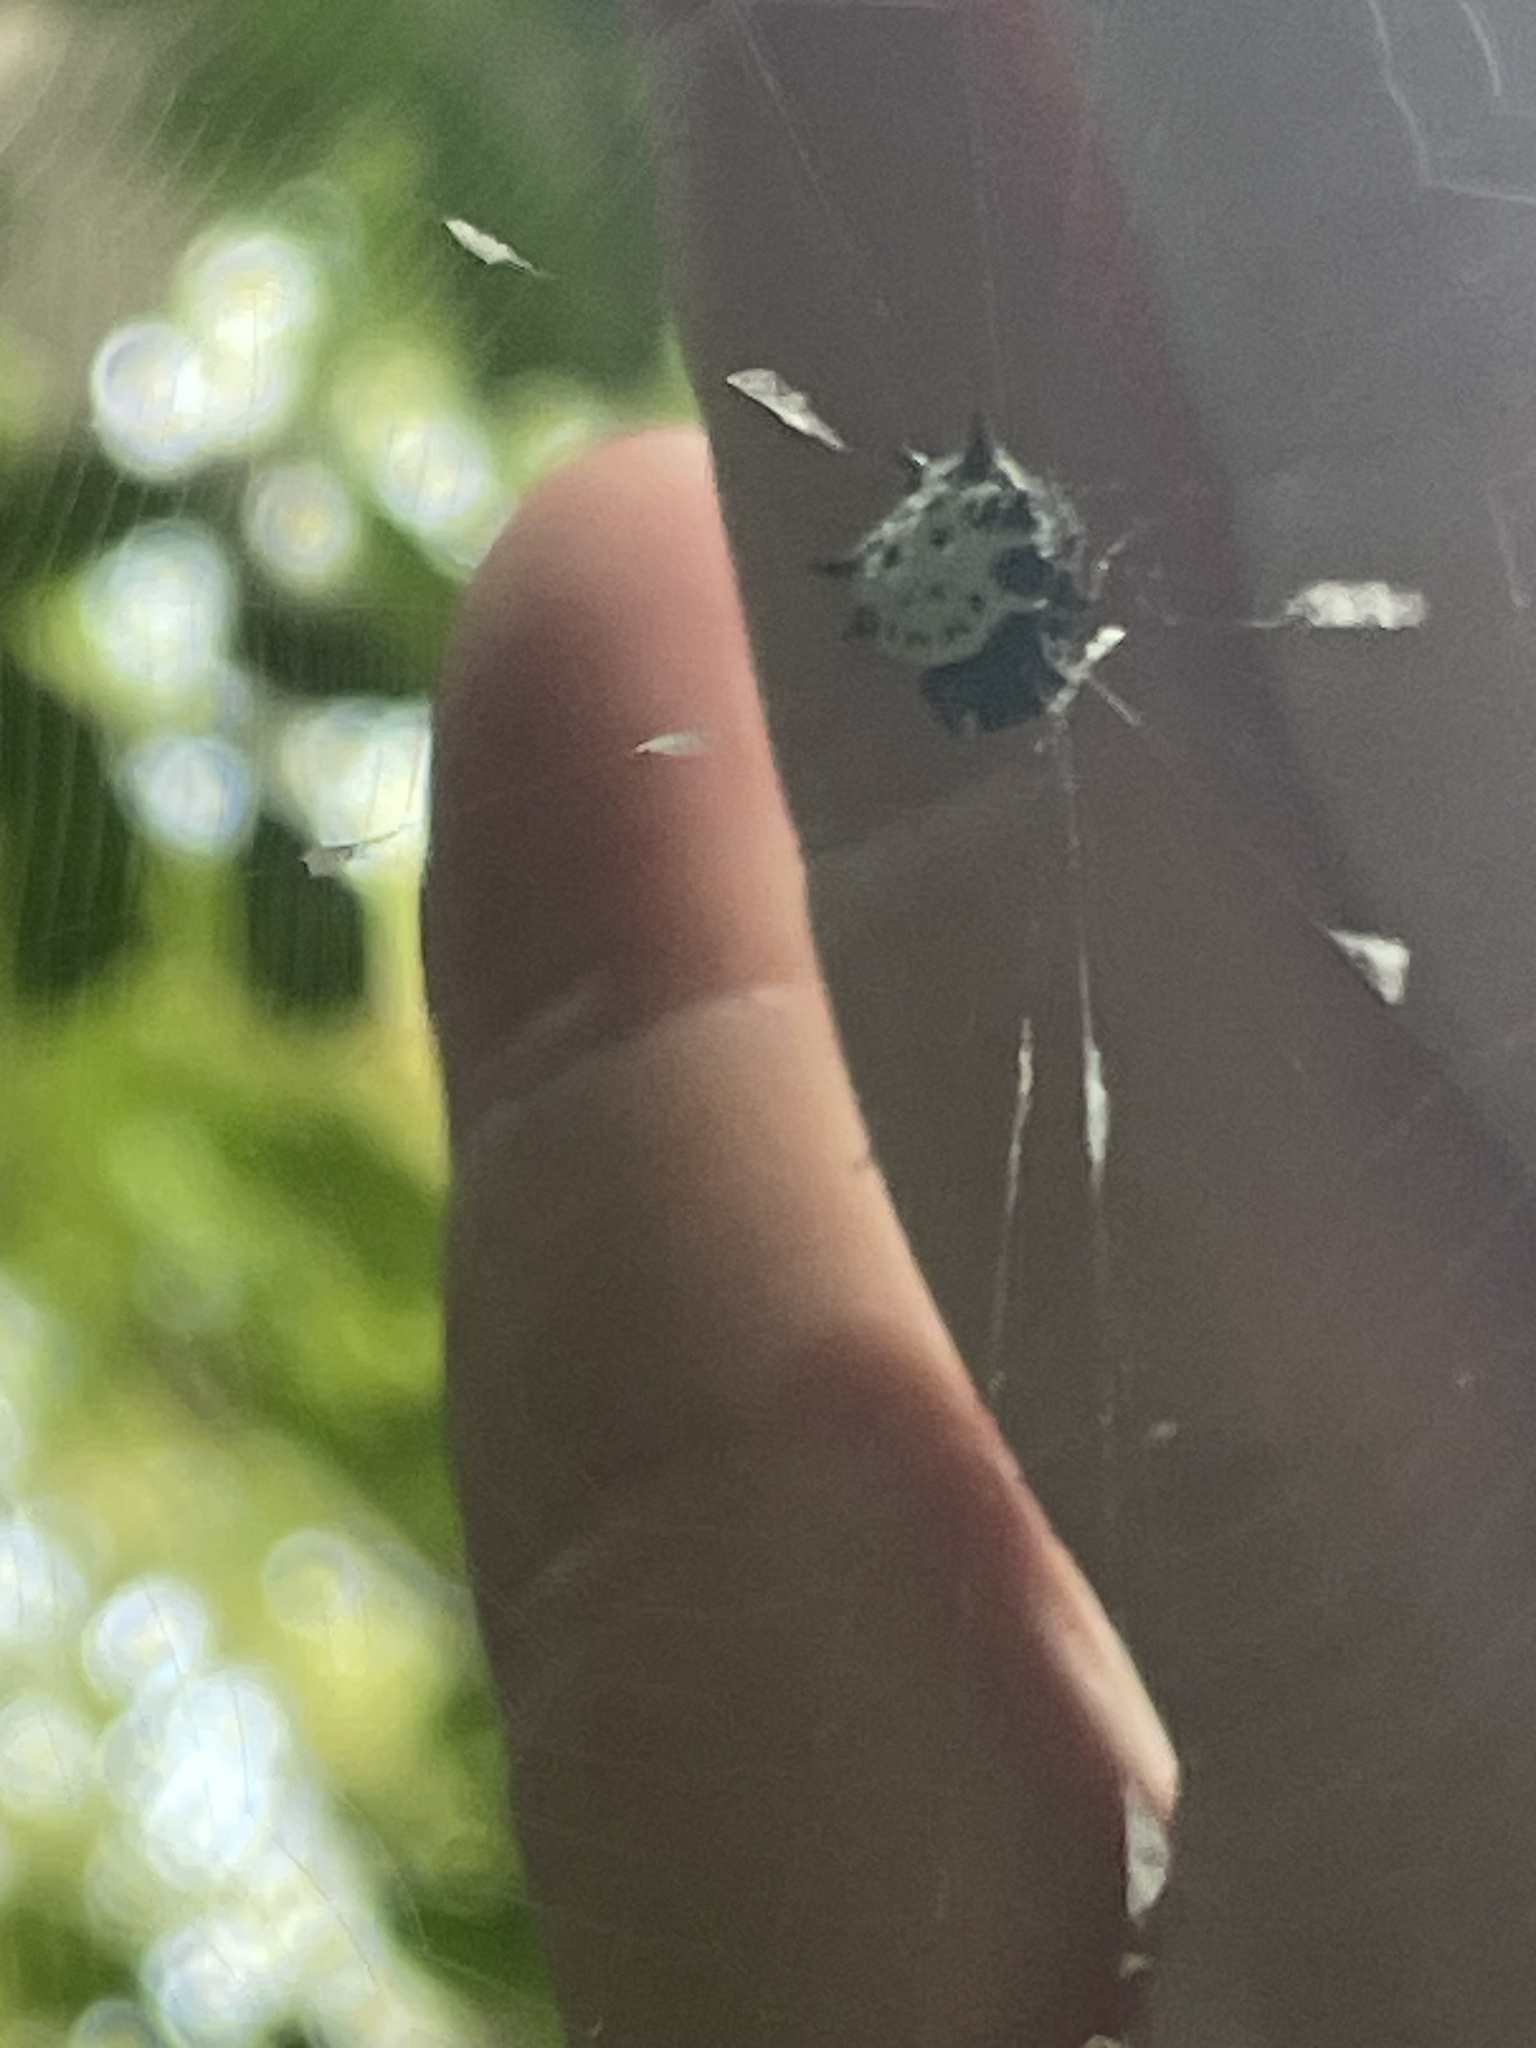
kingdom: Animalia
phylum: Arthropoda
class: Arachnida
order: Araneae
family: Araneidae
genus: Gasteracantha
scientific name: Gasteracantha cancriformis
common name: Orb weavers
